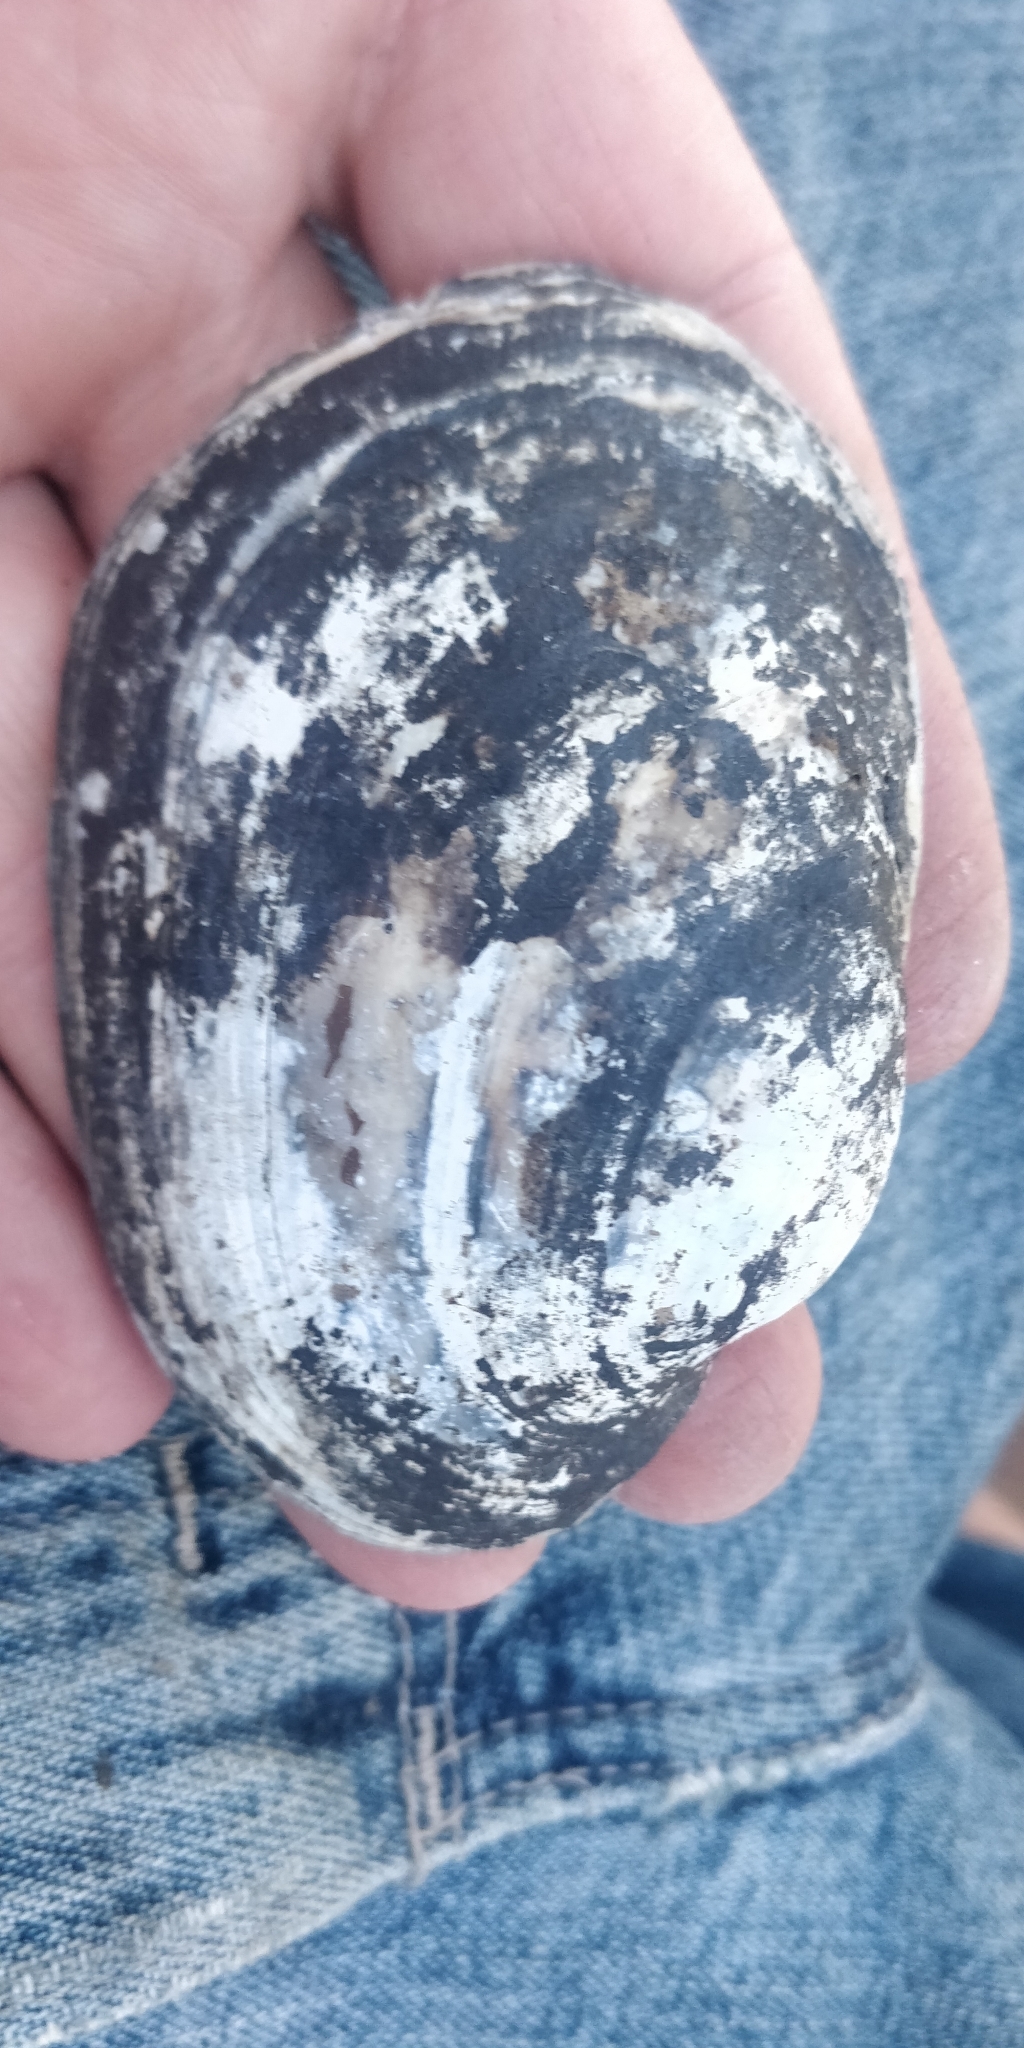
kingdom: Animalia
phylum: Mollusca
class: Bivalvia
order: Unionida
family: Unionidae
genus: Lampsilis
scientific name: Lampsilis cardium
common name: Plain pocketbook
